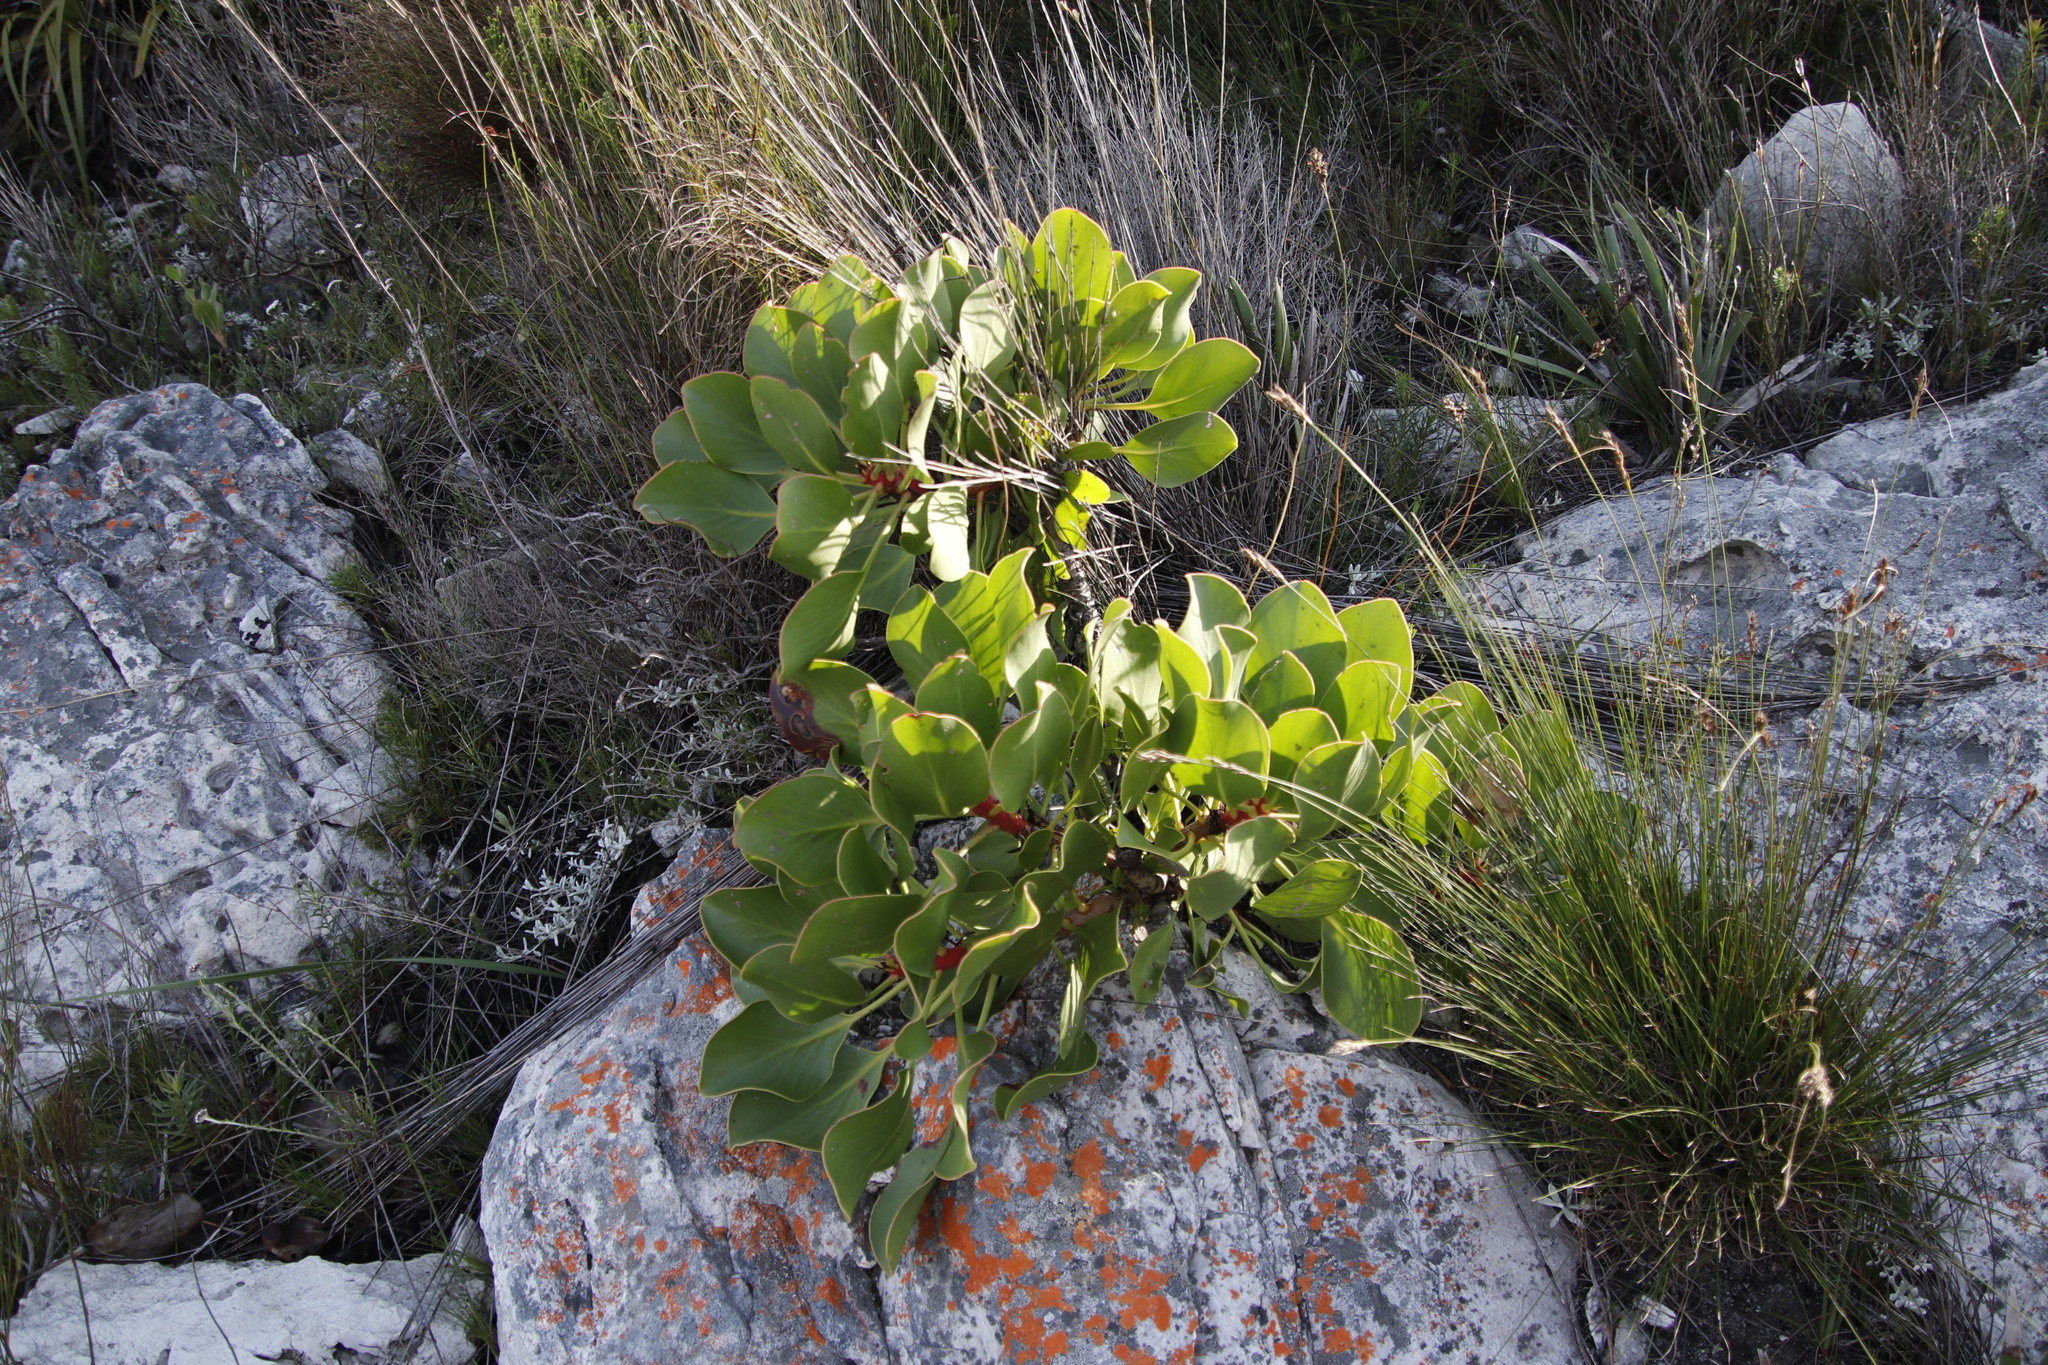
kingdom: Plantae
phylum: Tracheophyta
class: Magnoliopsida
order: Proteales
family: Proteaceae
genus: Protea
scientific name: Protea cynaroides
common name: King protea
